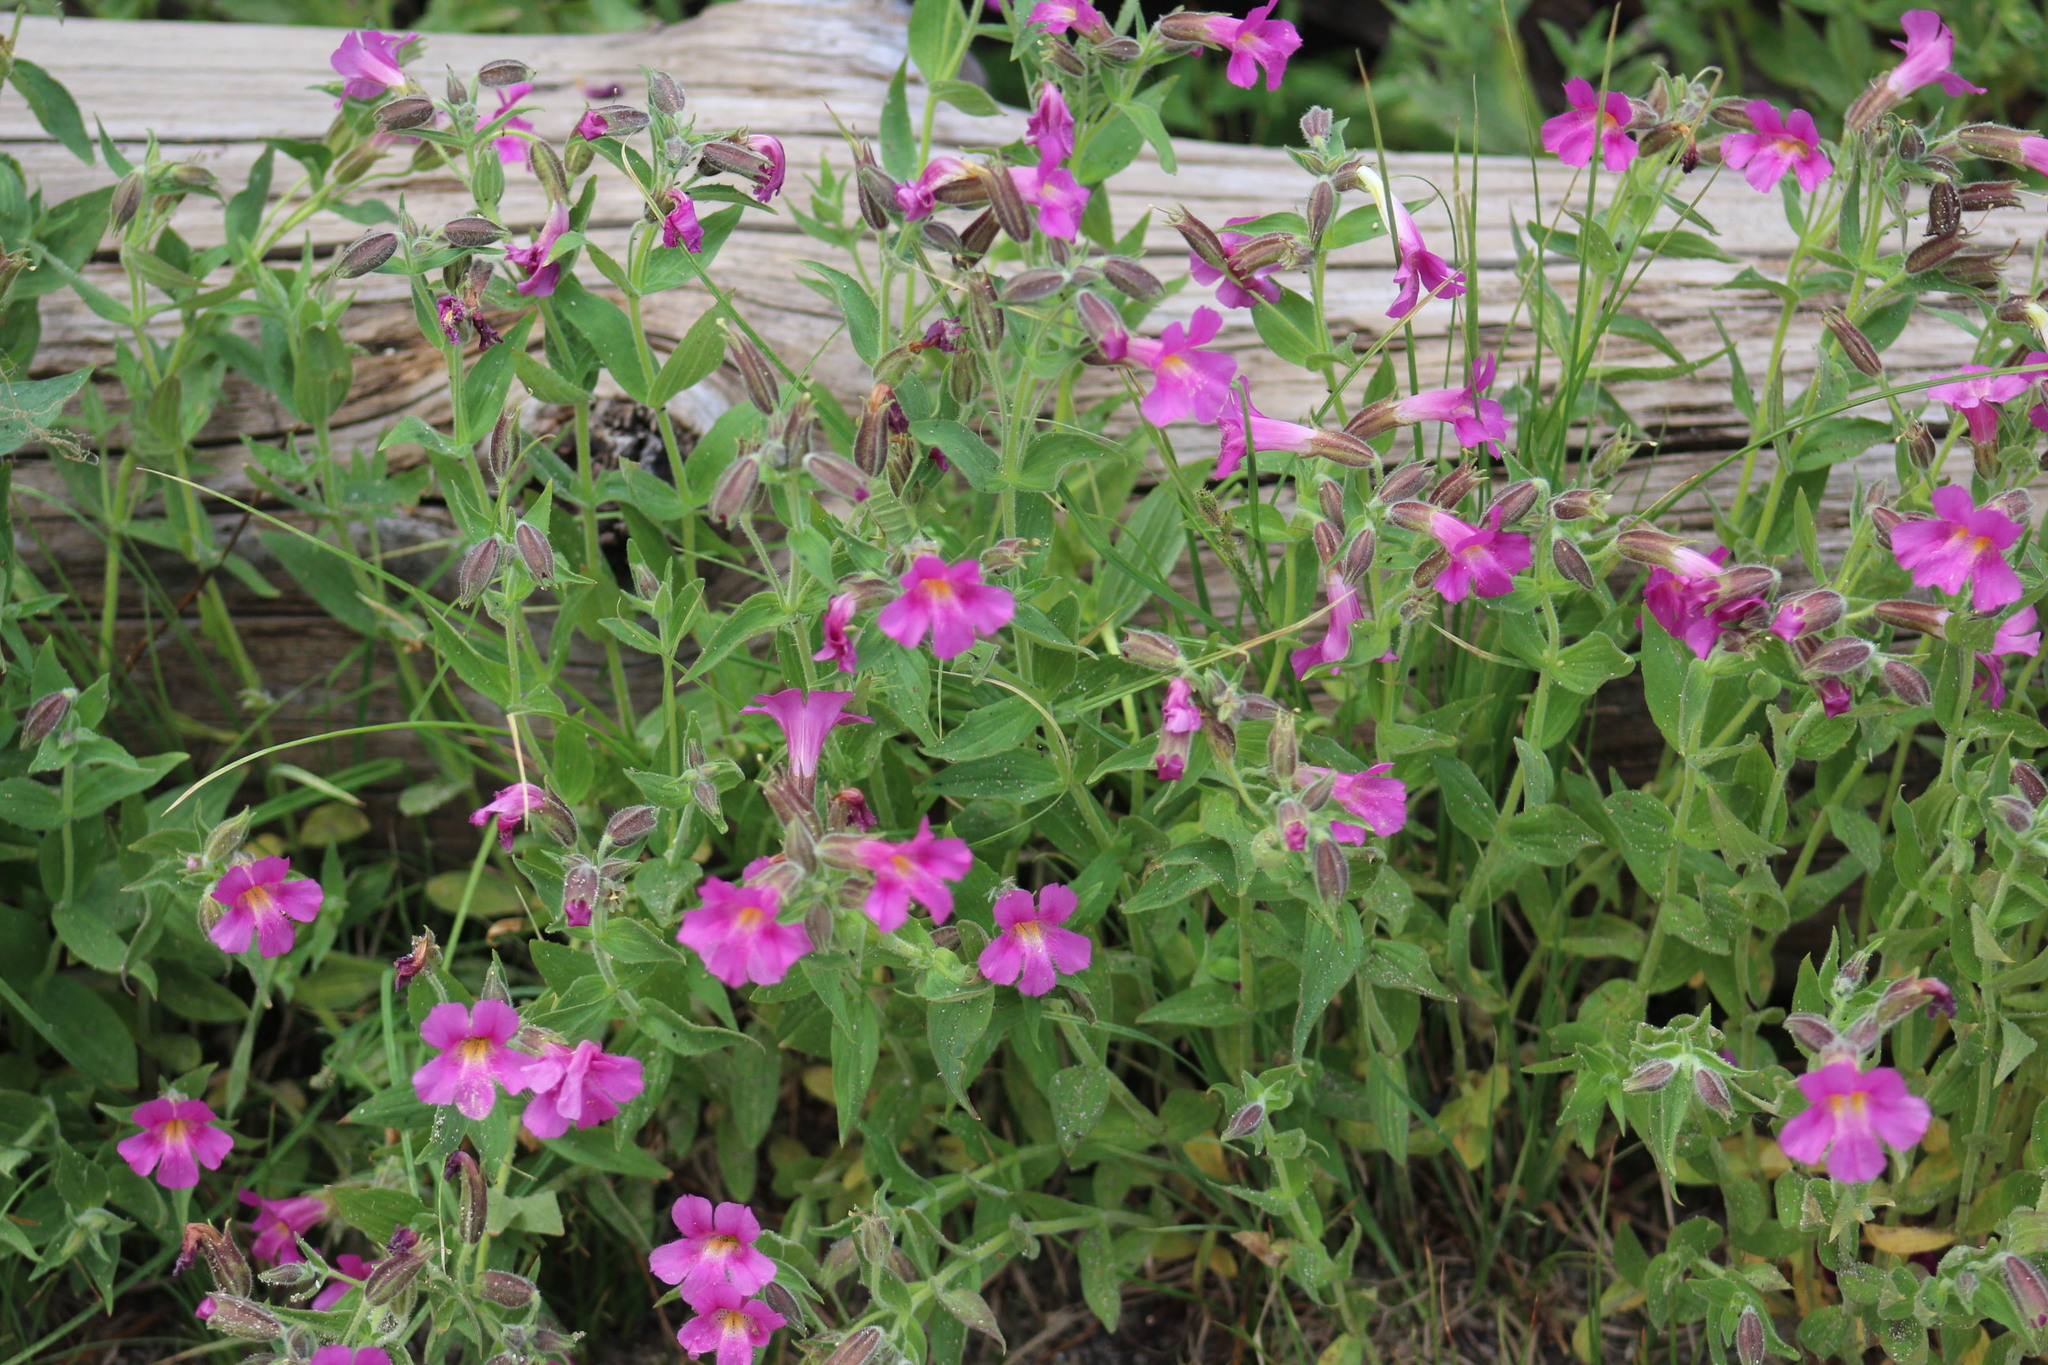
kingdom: Plantae
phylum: Tracheophyta
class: Magnoliopsida
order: Lamiales
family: Phrymaceae
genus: Erythranthe
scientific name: Erythranthe lewisii
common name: Lewis's monkey-flower
